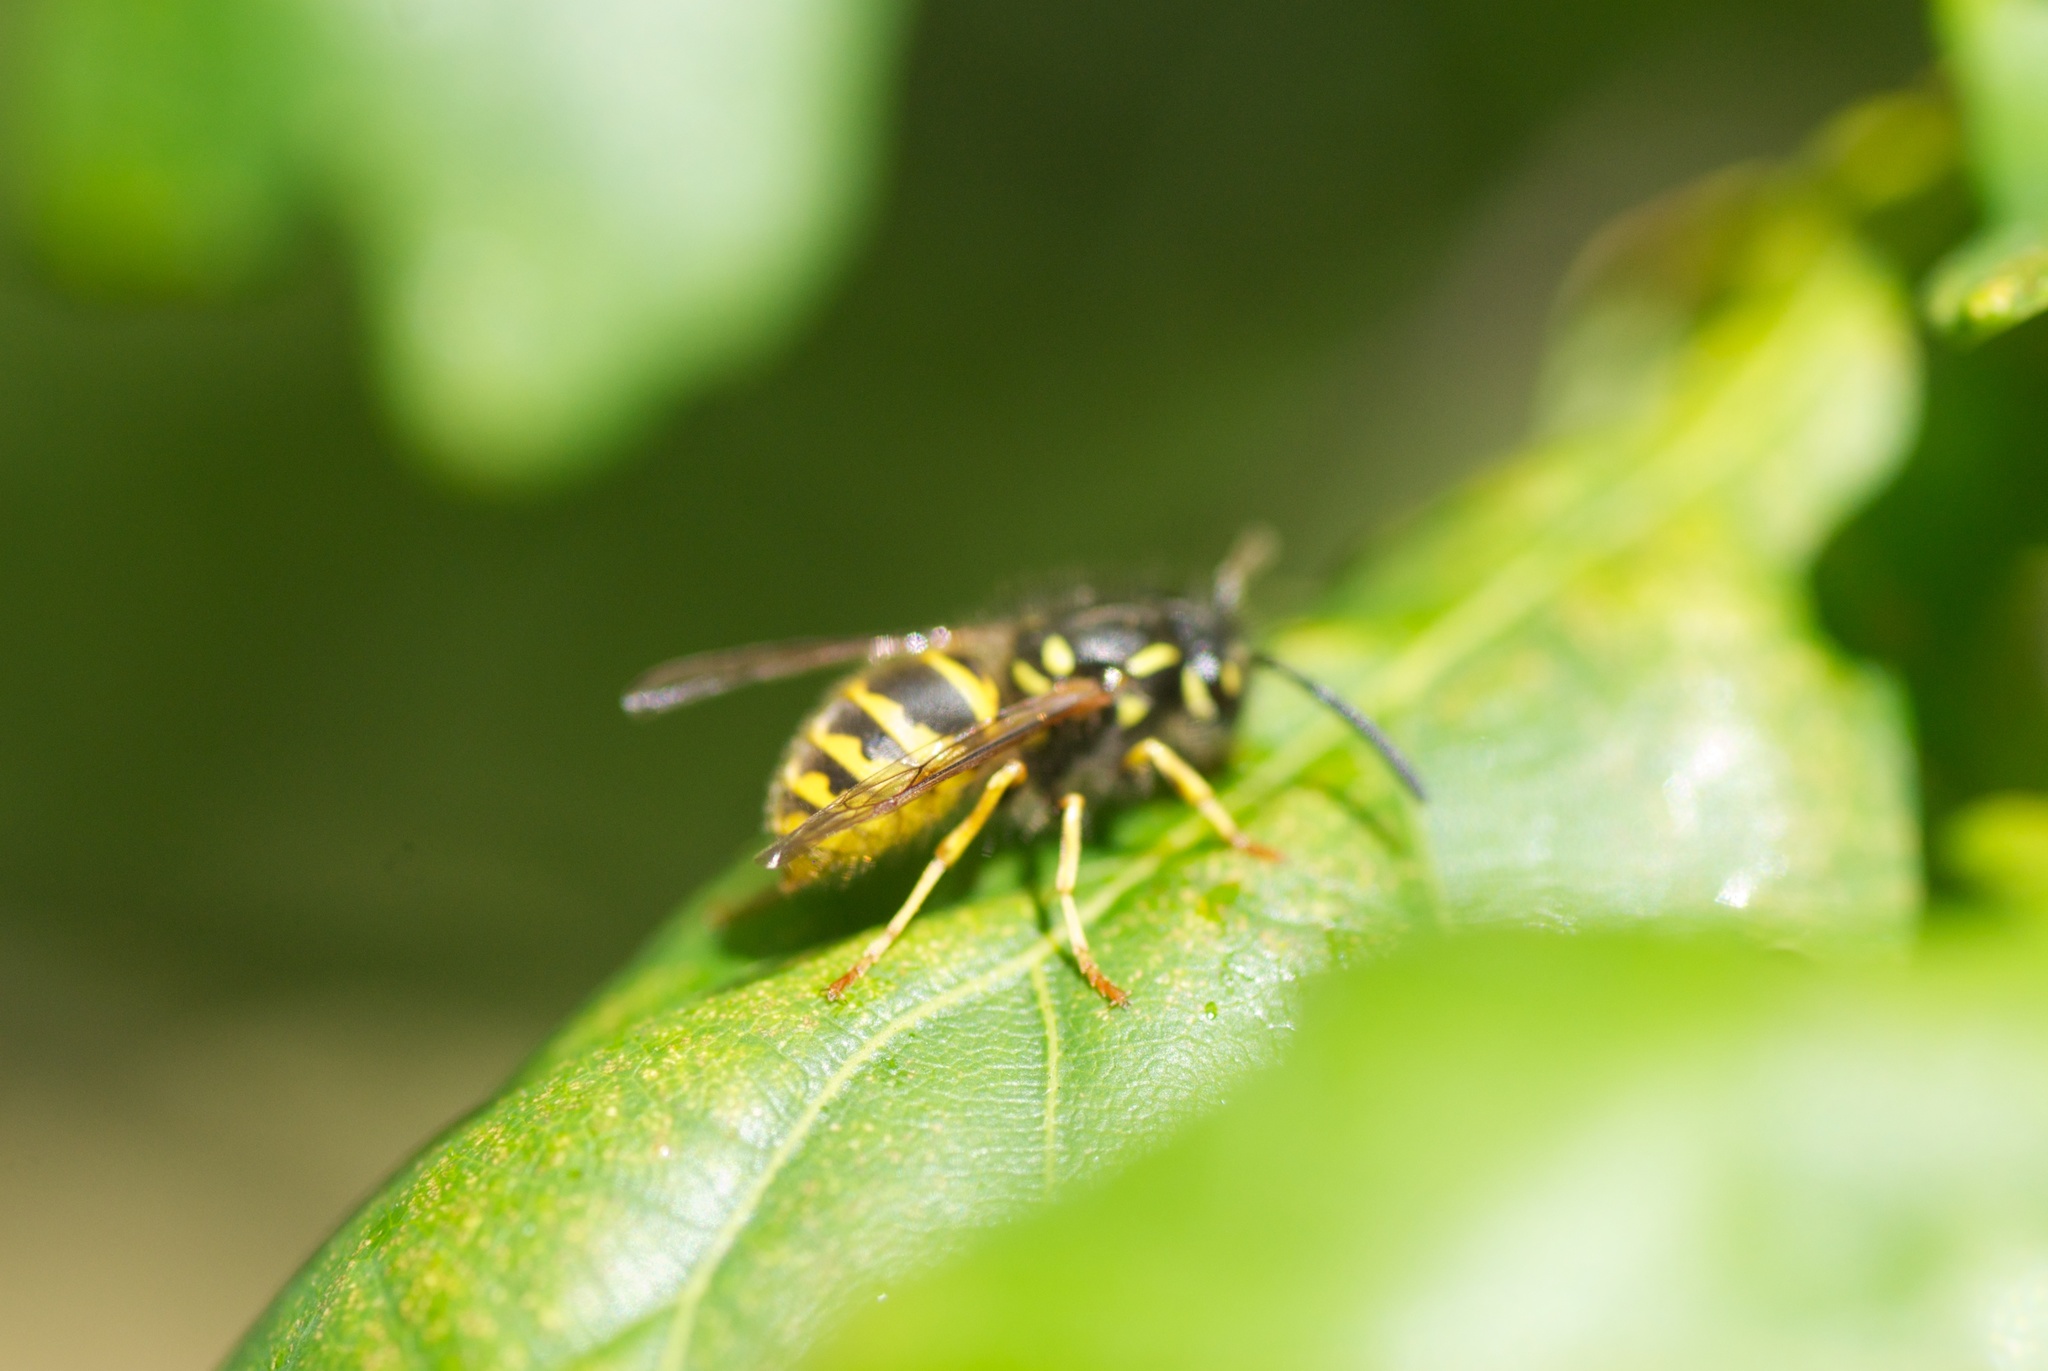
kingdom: Animalia
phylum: Arthropoda
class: Insecta
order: Hymenoptera
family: Vespidae
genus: Vespula
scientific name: Vespula vulgaris
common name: Common wasp
